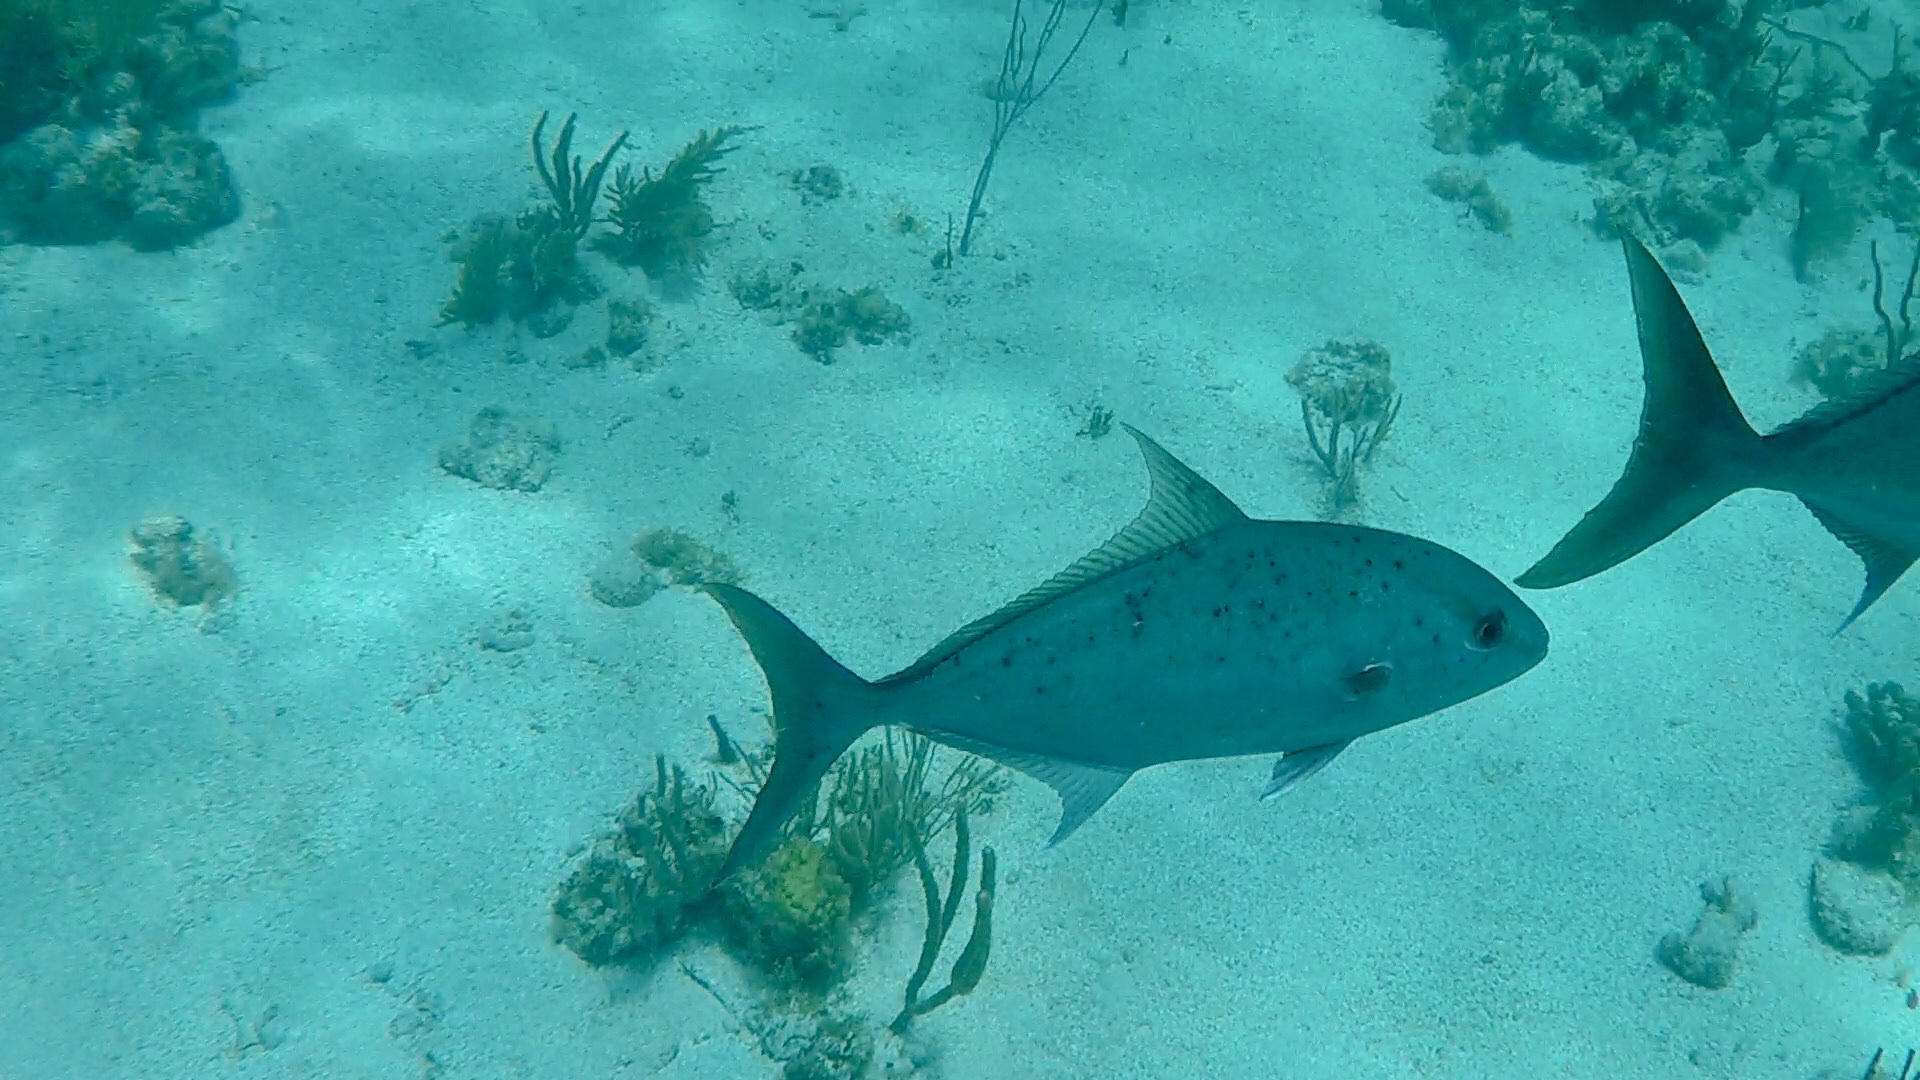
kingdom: Animalia
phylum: Chordata
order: Perciformes
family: Carangidae
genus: Seriola
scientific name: Seriola rivoliana
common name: Almaco jack
